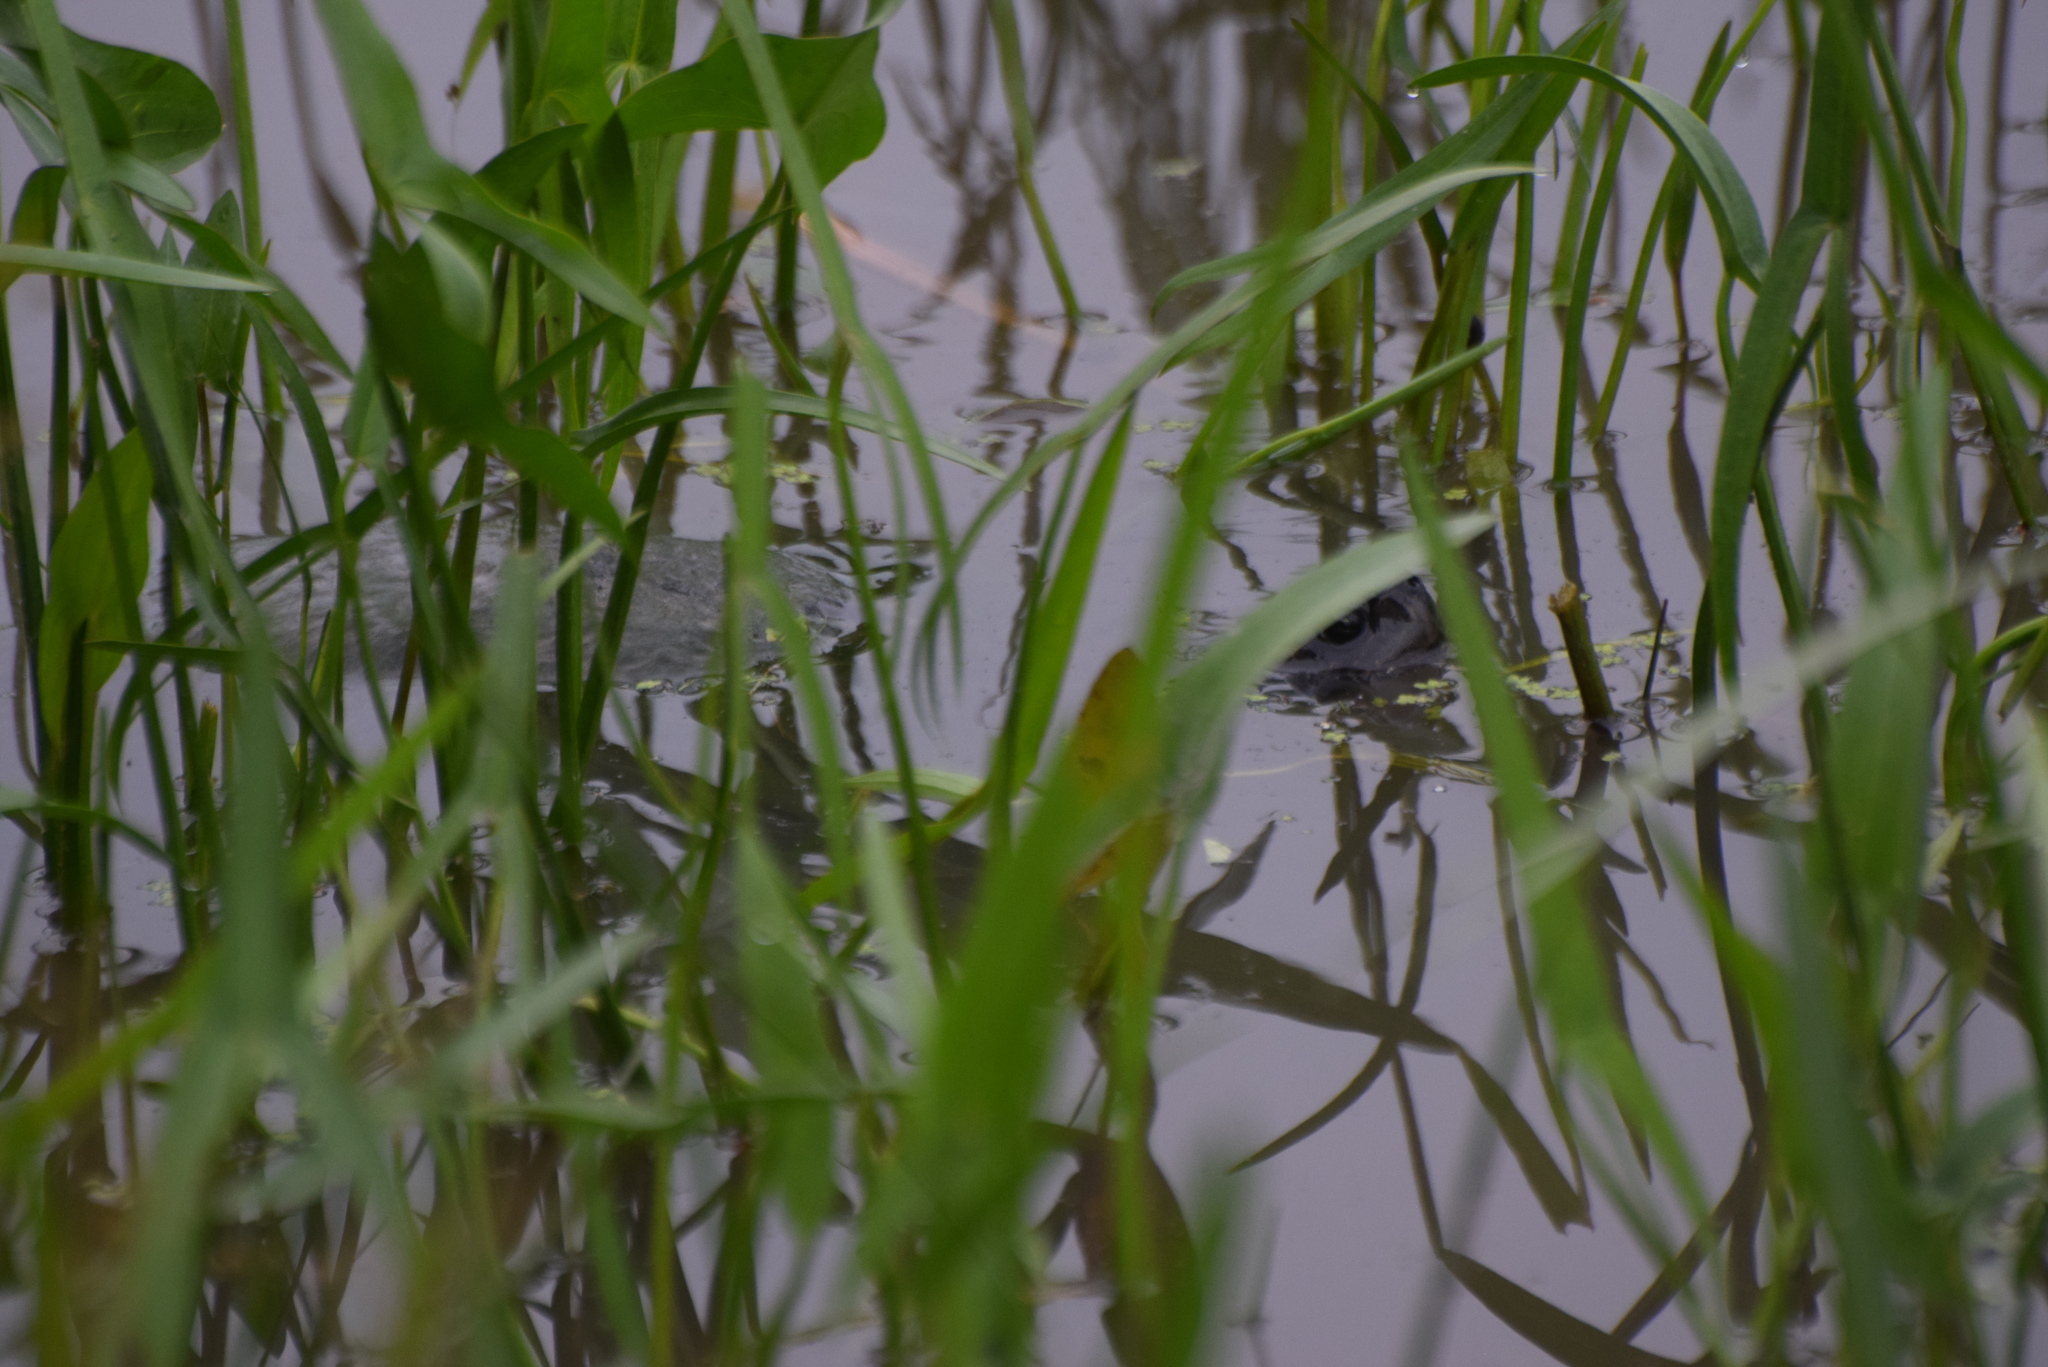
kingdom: Animalia
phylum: Chordata
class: Testudines
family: Emydidae
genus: Pseudemys
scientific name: Pseudemys rubriventris
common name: American red-bellied turtle
